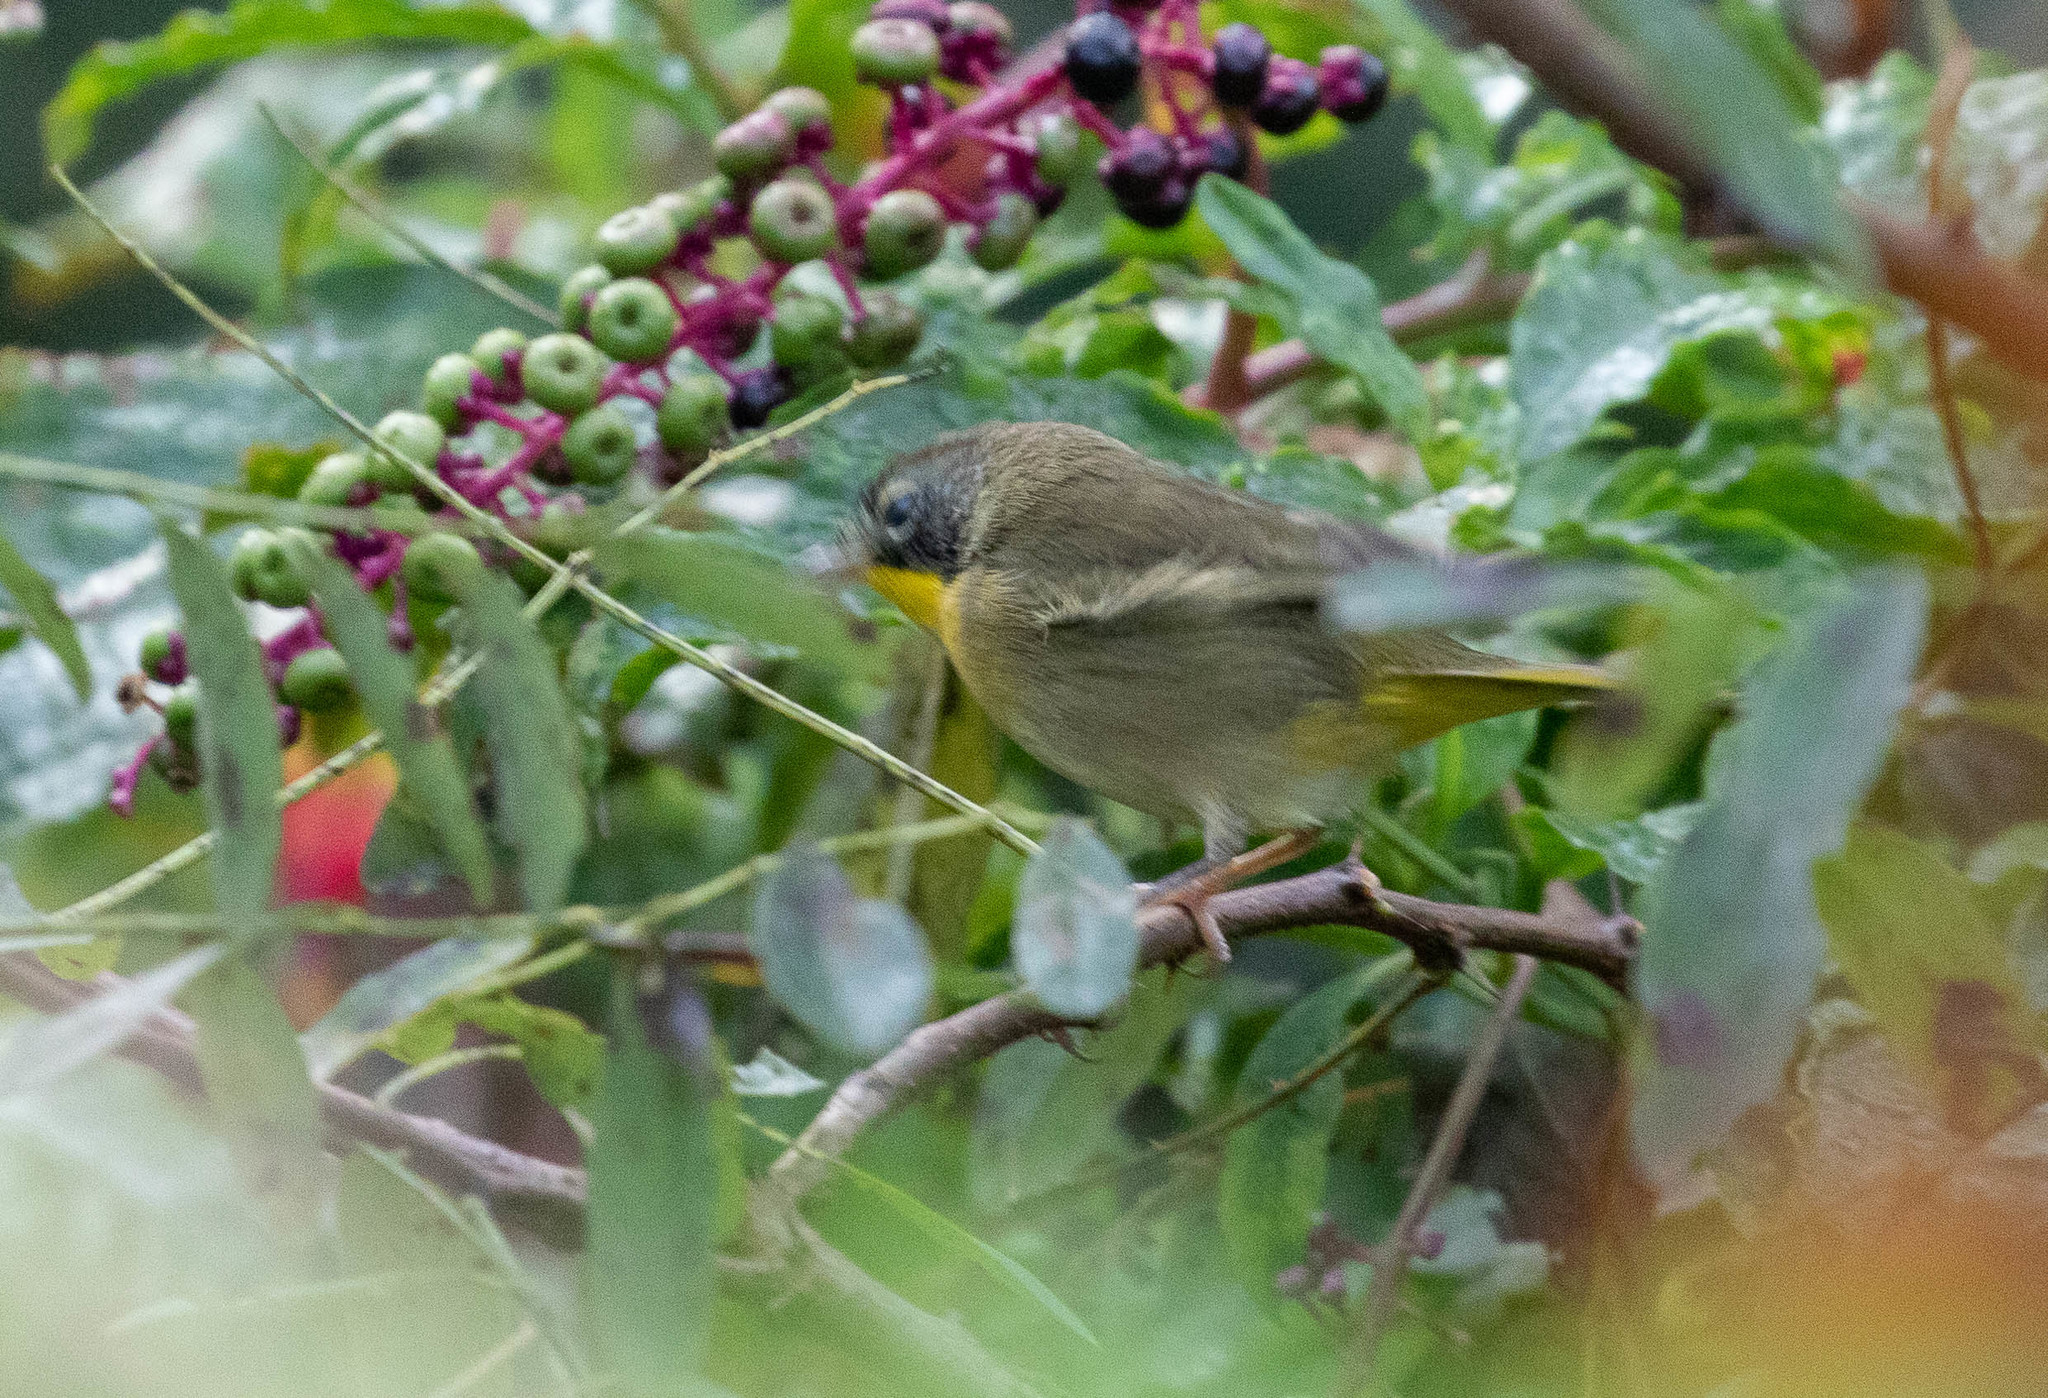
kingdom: Animalia
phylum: Chordata
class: Aves
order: Passeriformes
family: Parulidae
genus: Geothlypis
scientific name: Geothlypis trichas
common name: Common yellowthroat
